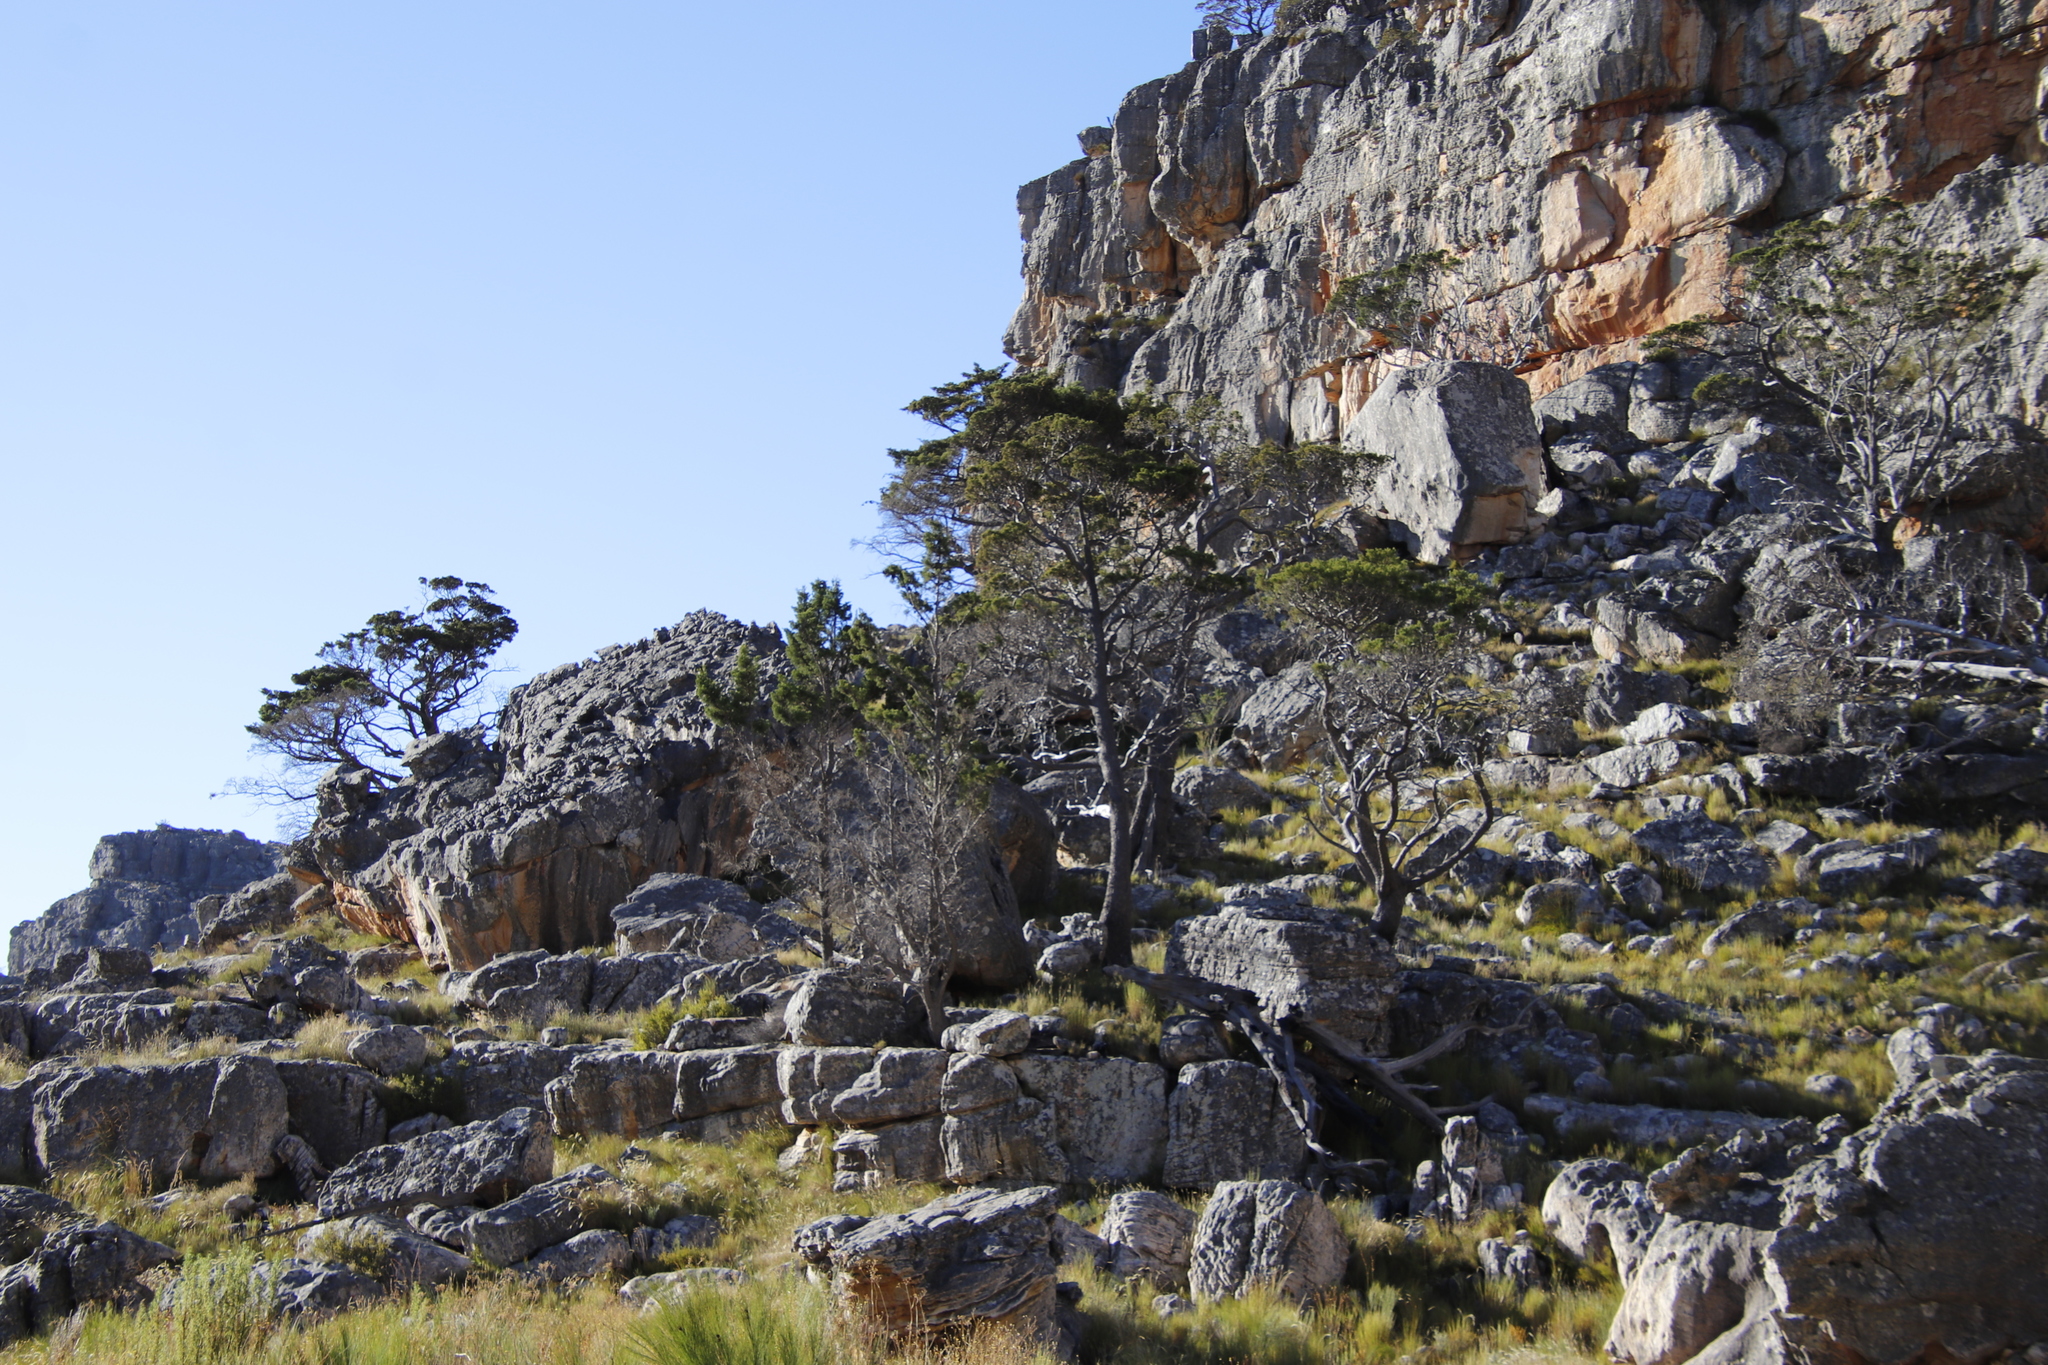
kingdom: Plantae
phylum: Tracheophyta
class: Pinopsida
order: Pinales
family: Cupressaceae
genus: Widdringtonia
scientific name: Widdringtonia nodiflora
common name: Cape cypress
